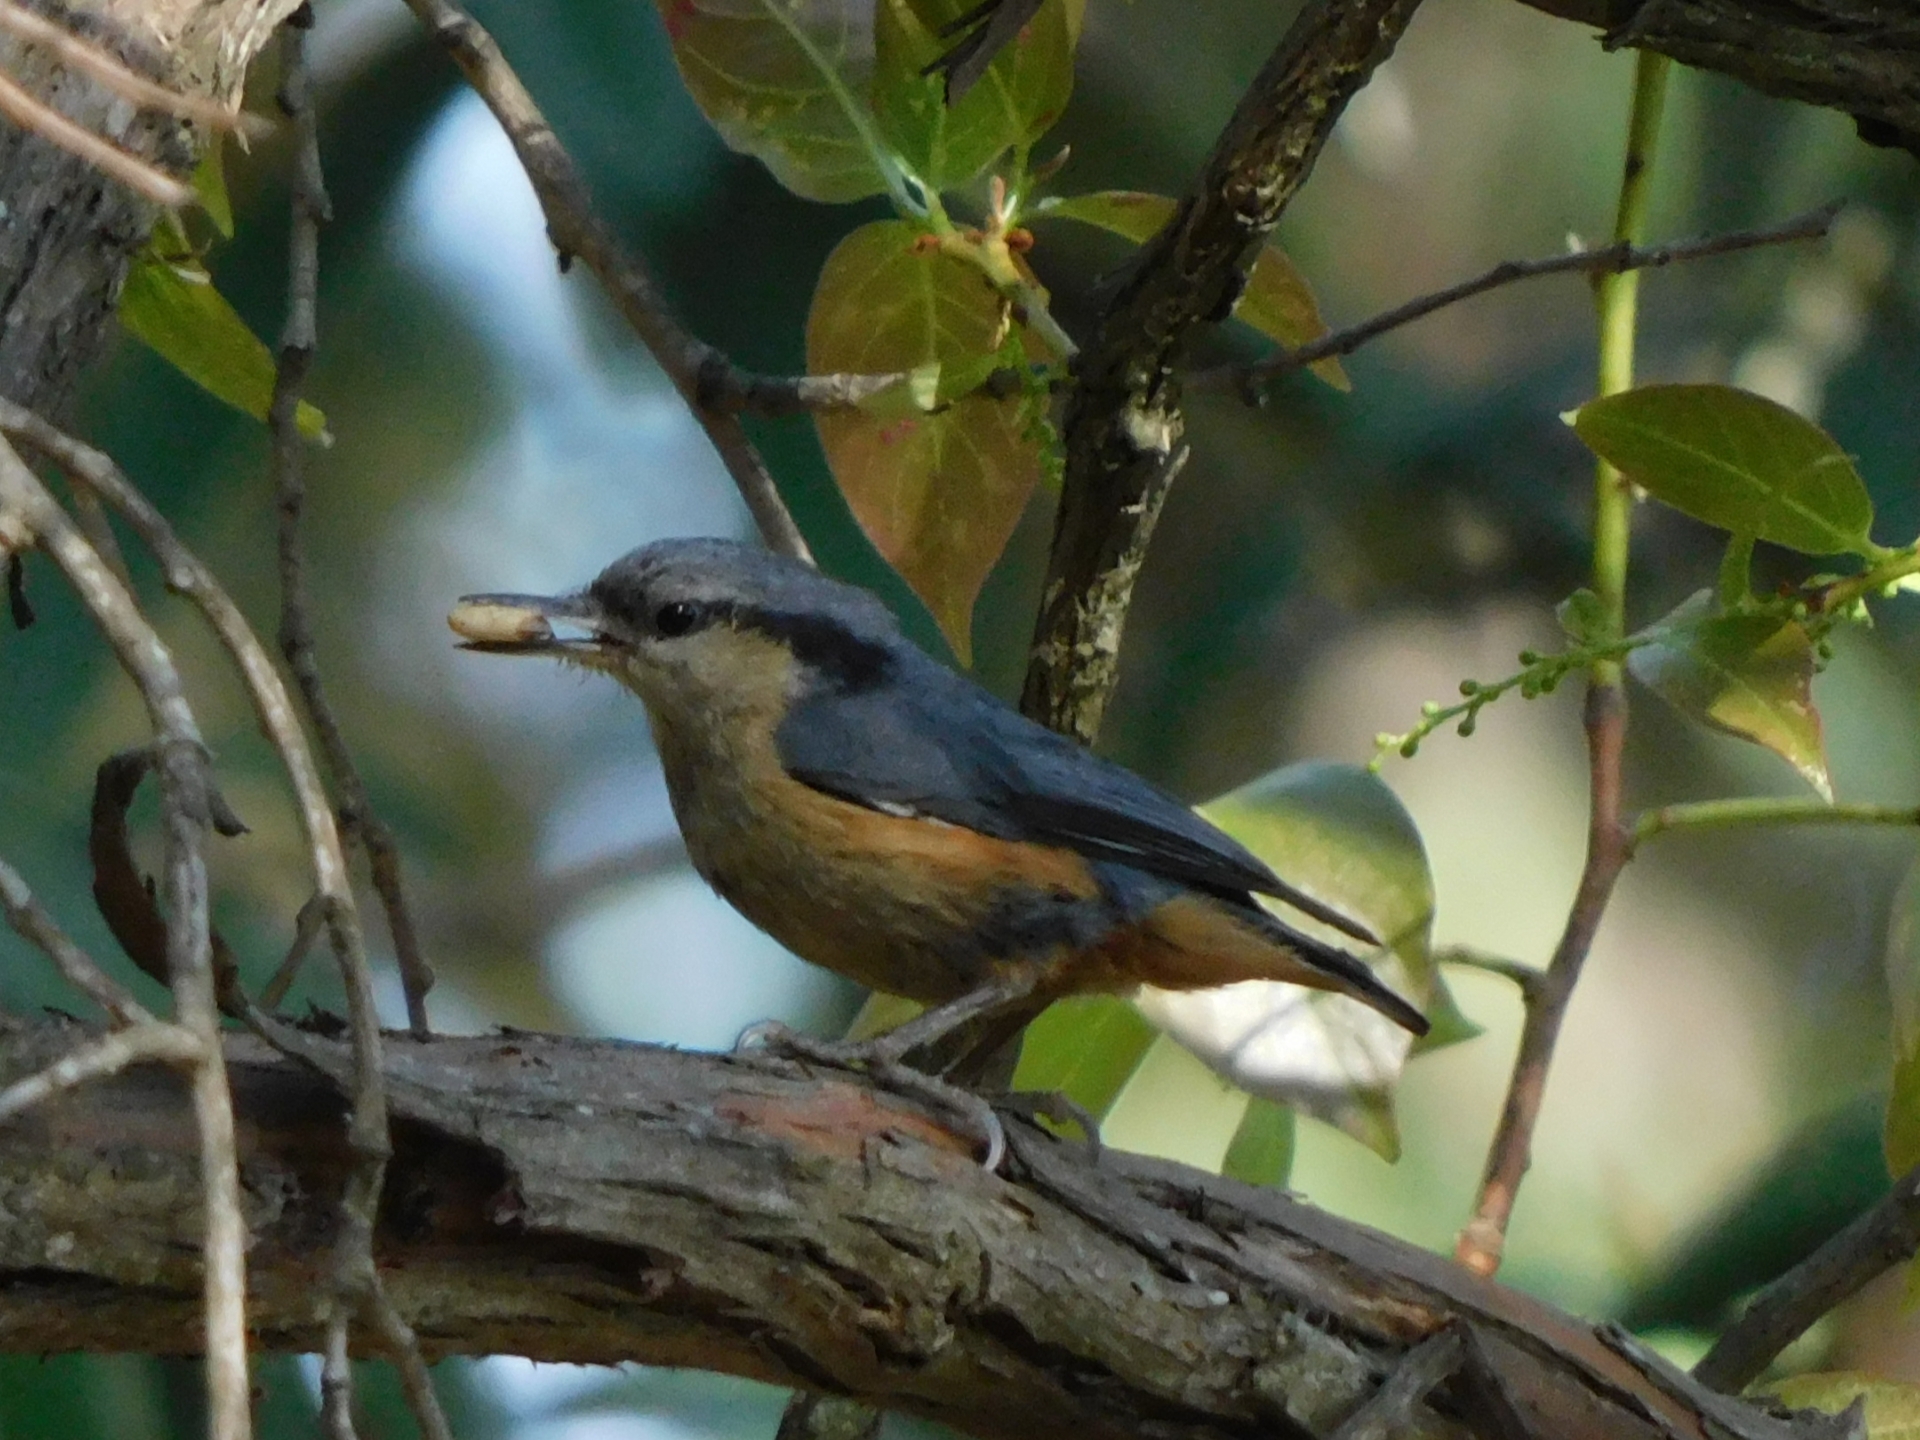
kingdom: Animalia
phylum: Chordata
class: Aves
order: Passeriformes
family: Sittidae
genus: Sitta
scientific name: Sitta himalayensis
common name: White-tailed nuthatch
